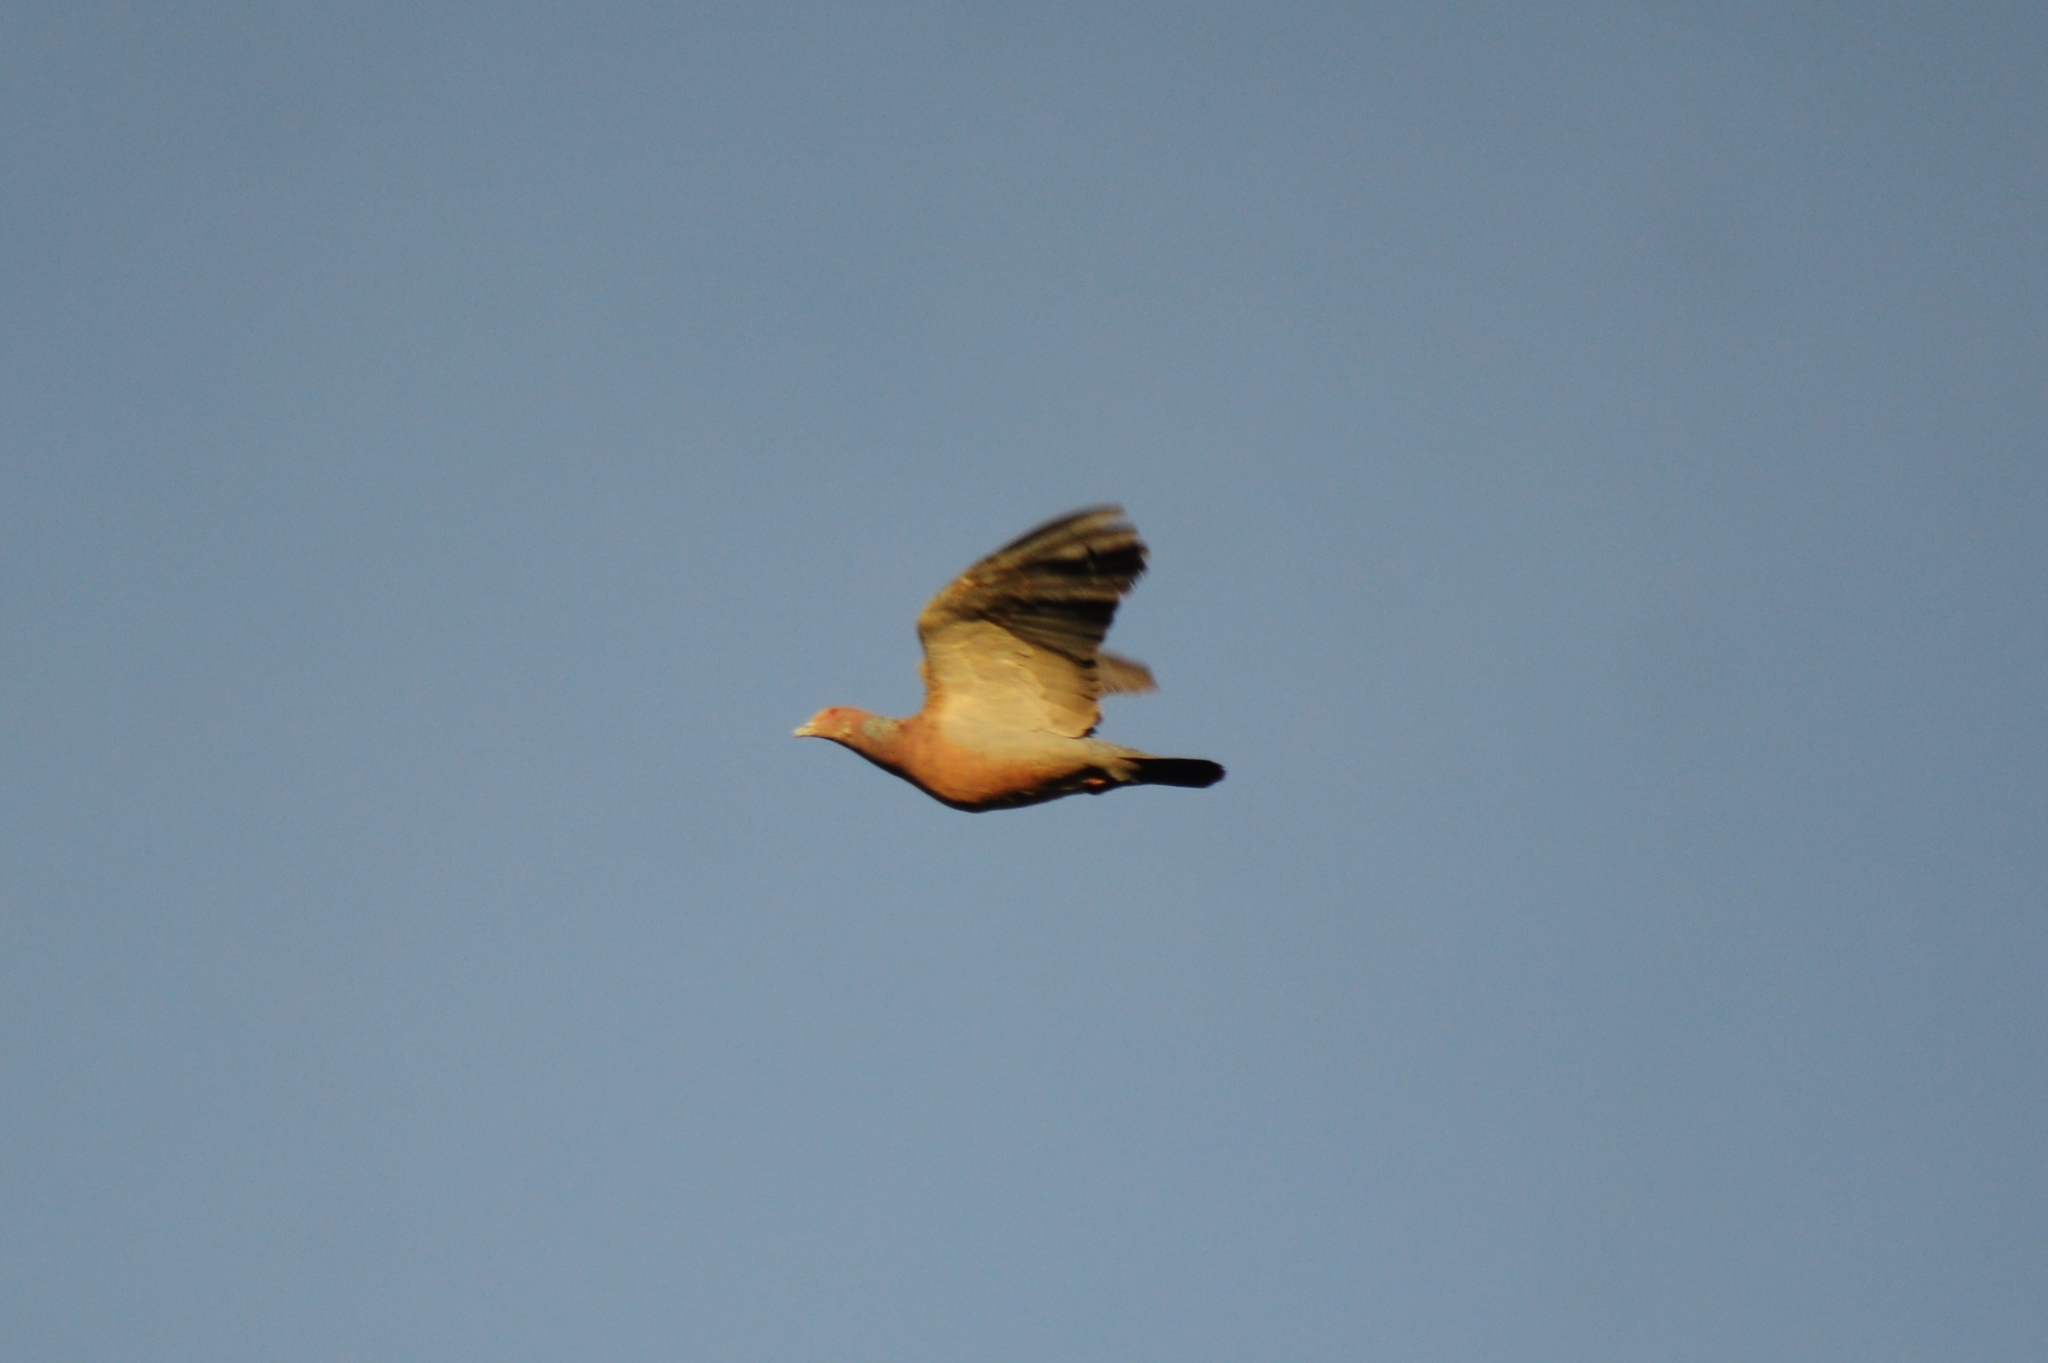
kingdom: Animalia
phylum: Chordata
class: Aves
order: Columbiformes
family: Columbidae
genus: Patagioenas
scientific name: Patagioenas picazuro
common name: Picazuro pigeon
